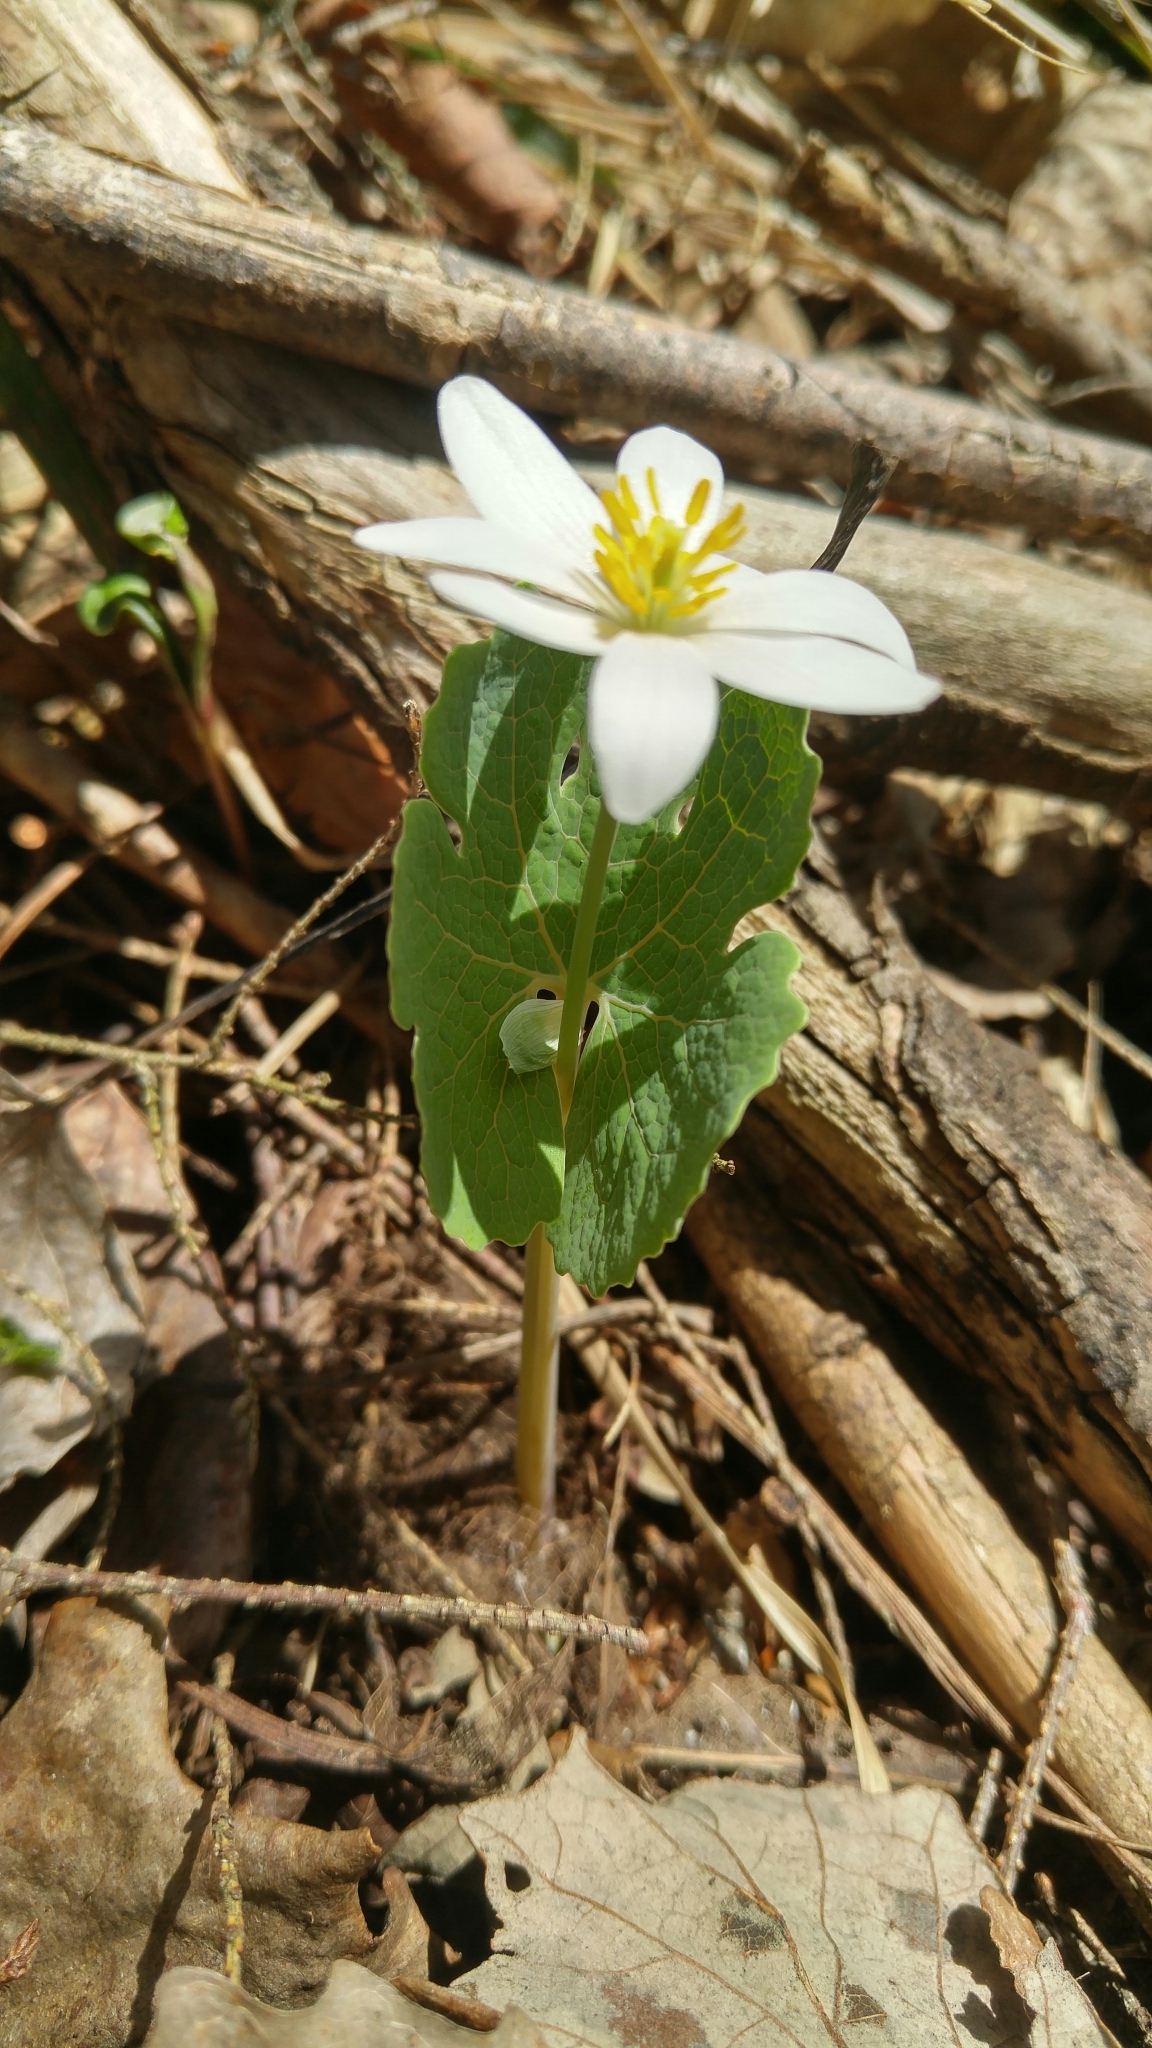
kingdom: Plantae
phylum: Tracheophyta
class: Magnoliopsida
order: Ranunculales
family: Papaveraceae
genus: Sanguinaria
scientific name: Sanguinaria canadensis
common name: Bloodroot
